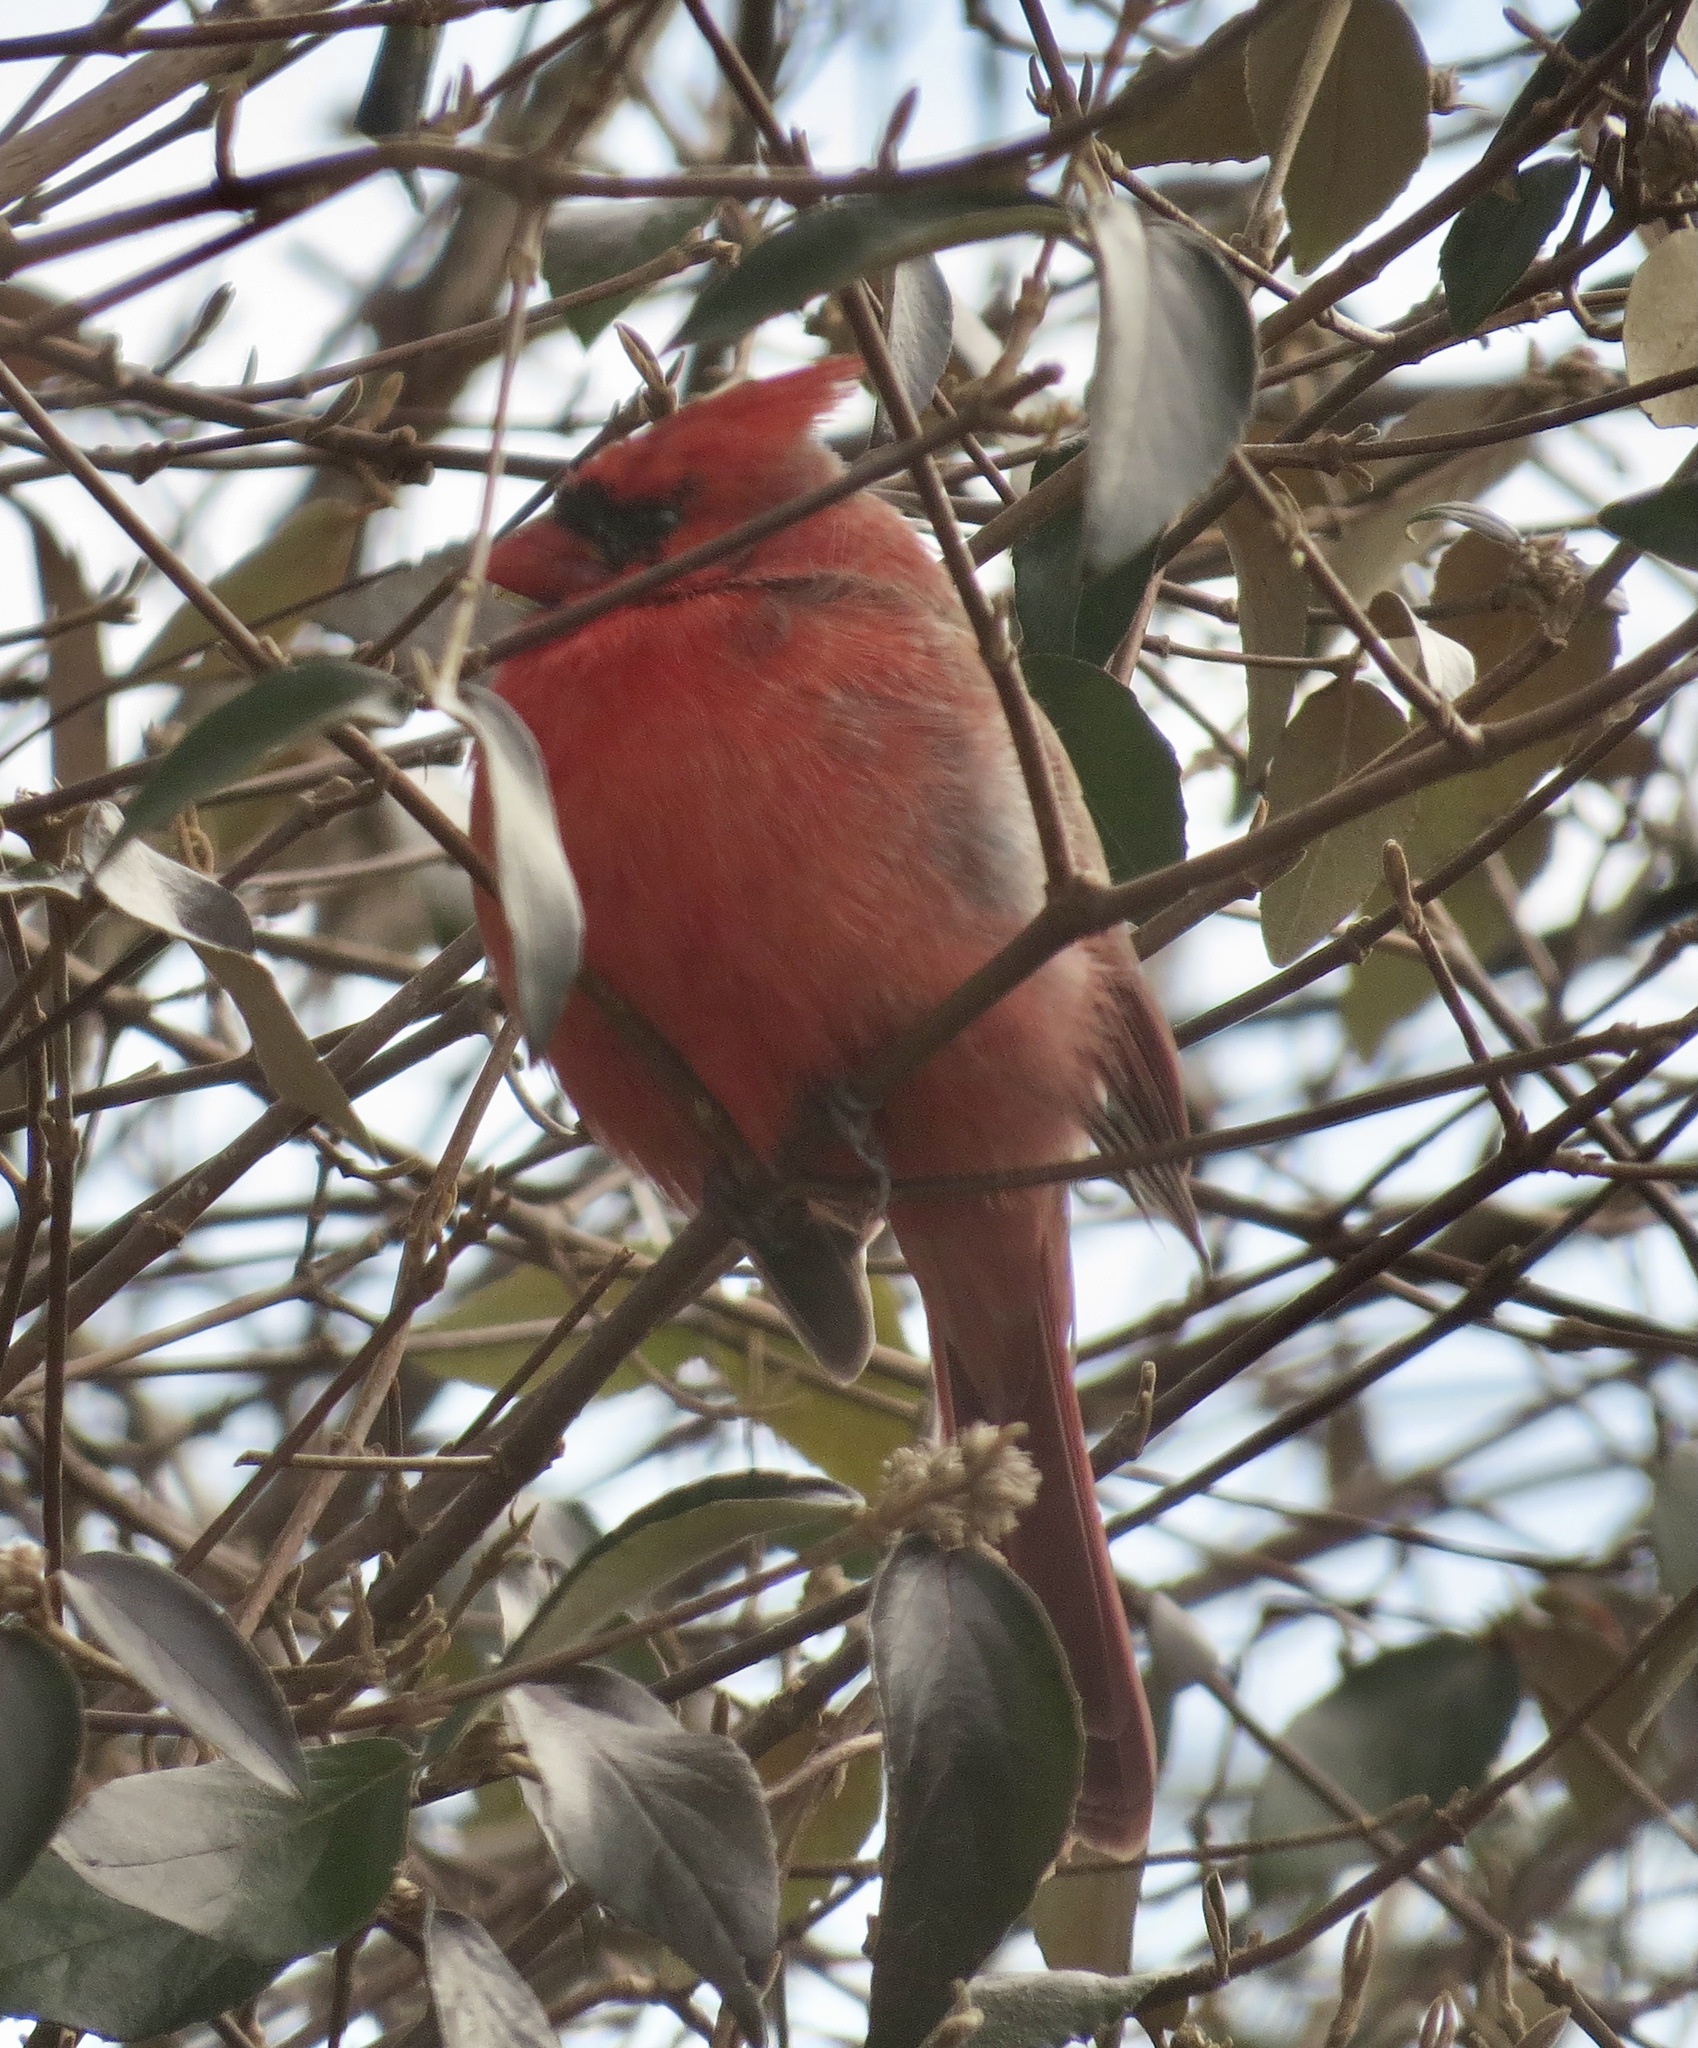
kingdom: Animalia
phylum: Chordata
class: Aves
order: Passeriformes
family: Cardinalidae
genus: Cardinalis
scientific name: Cardinalis cardinalis
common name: Northern cardinal
